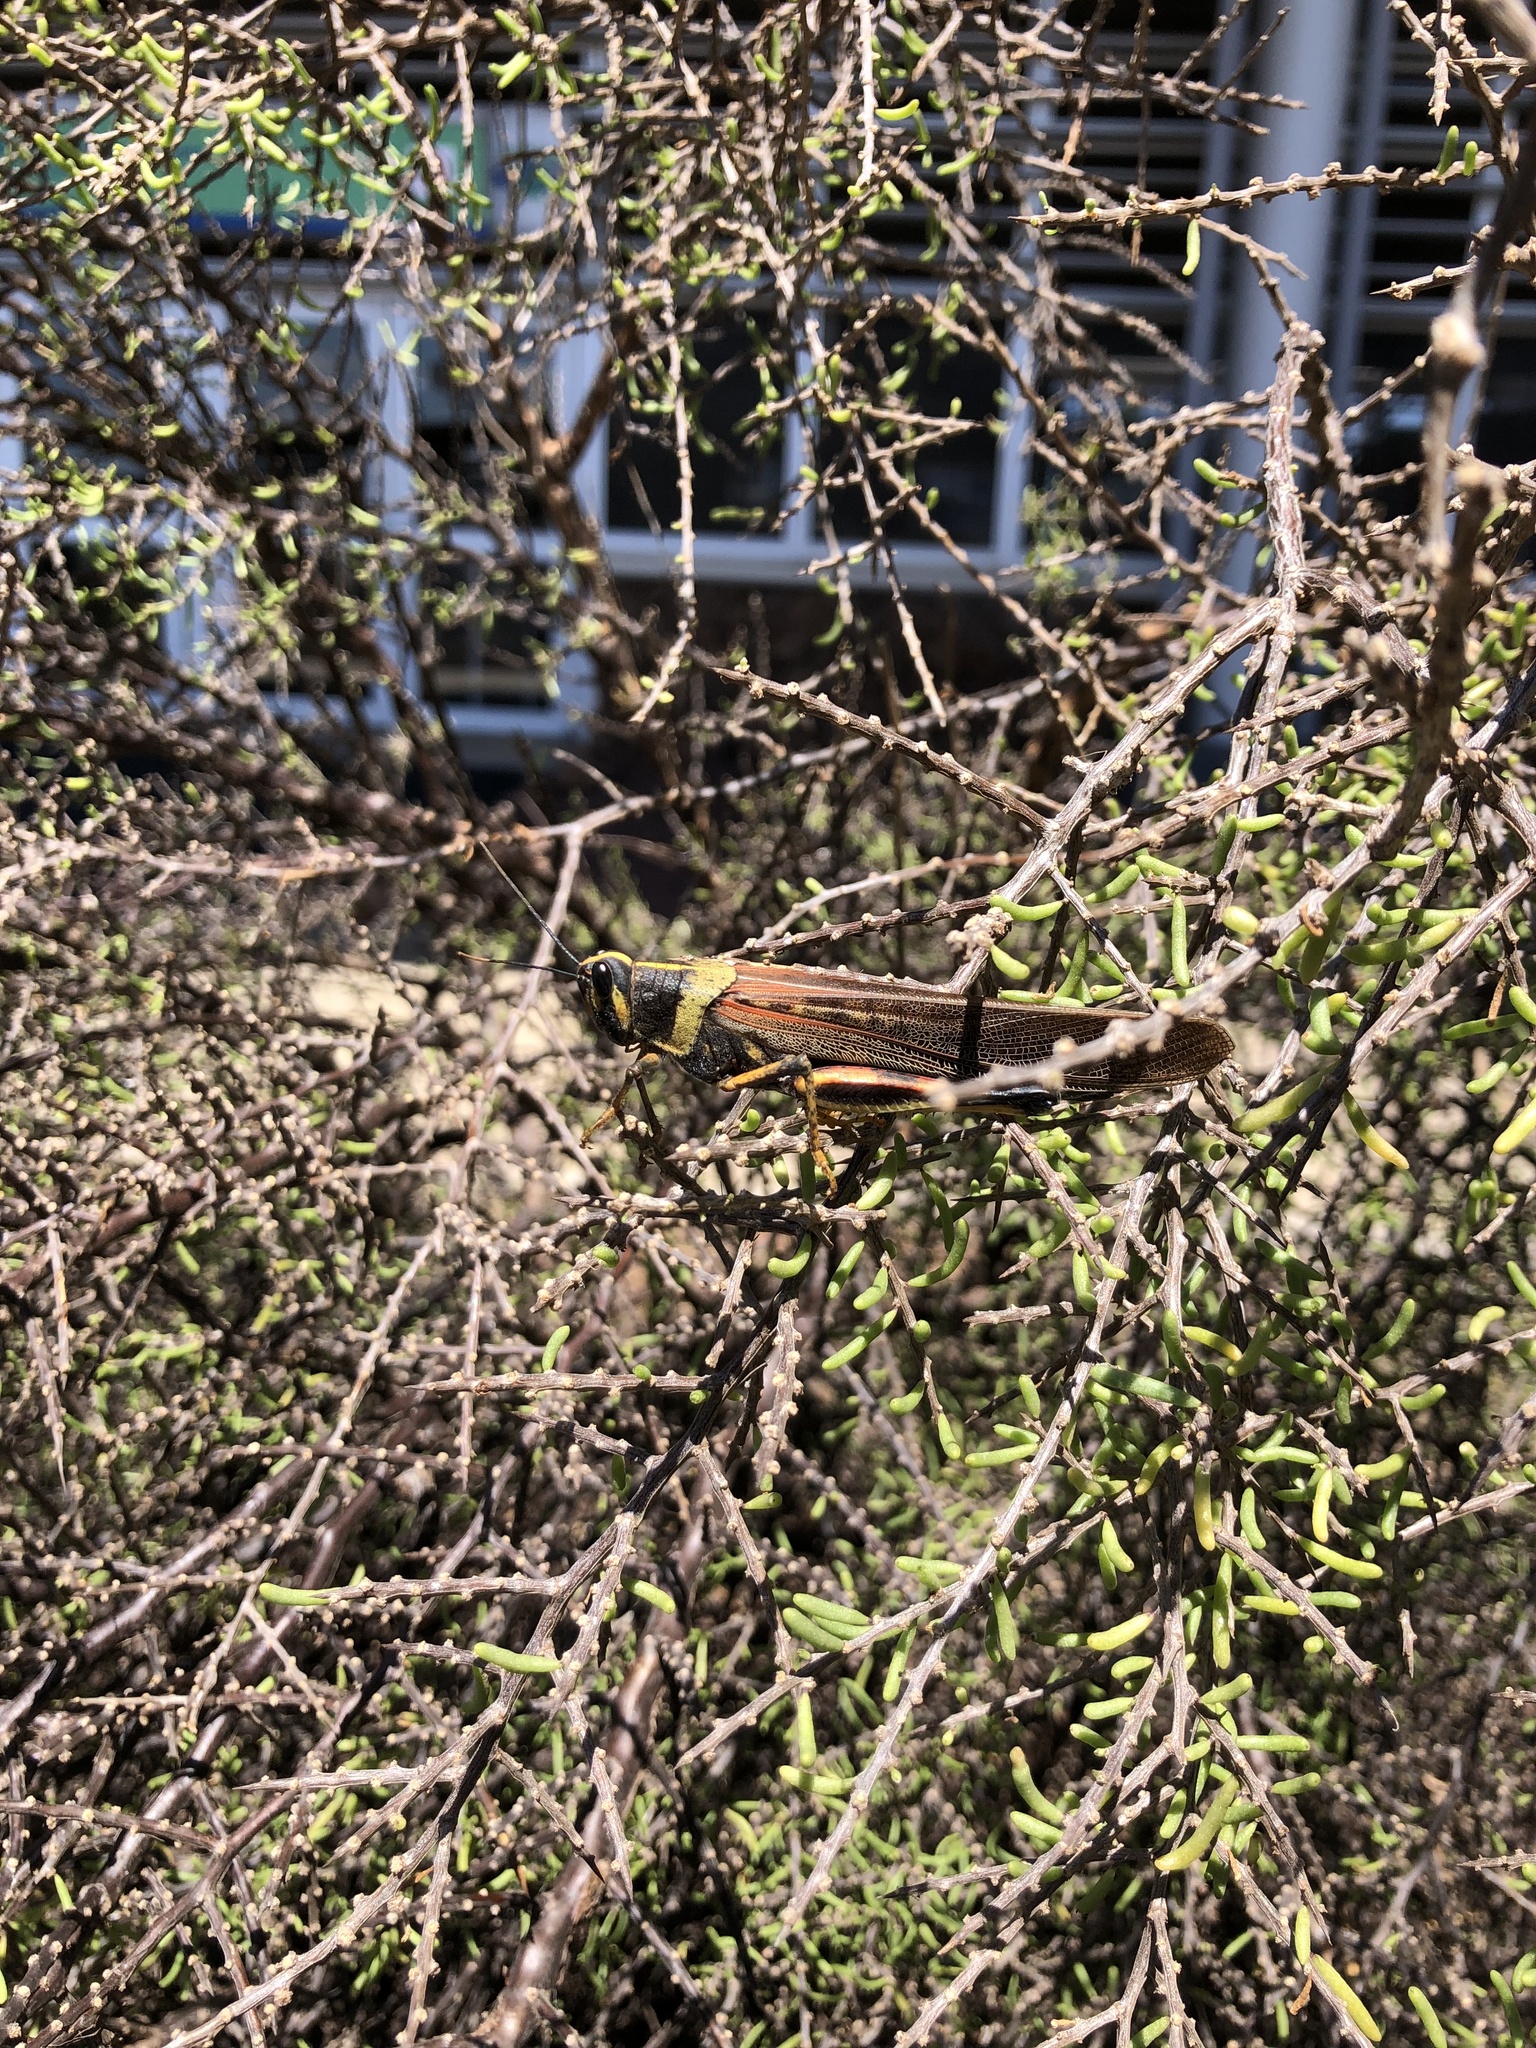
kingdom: Animalia
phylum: Arthropoda
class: Insecta
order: Orthoptera
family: Acrididae
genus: Schistocerca
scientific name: Schistocerca melanocera
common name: Large painted locust
